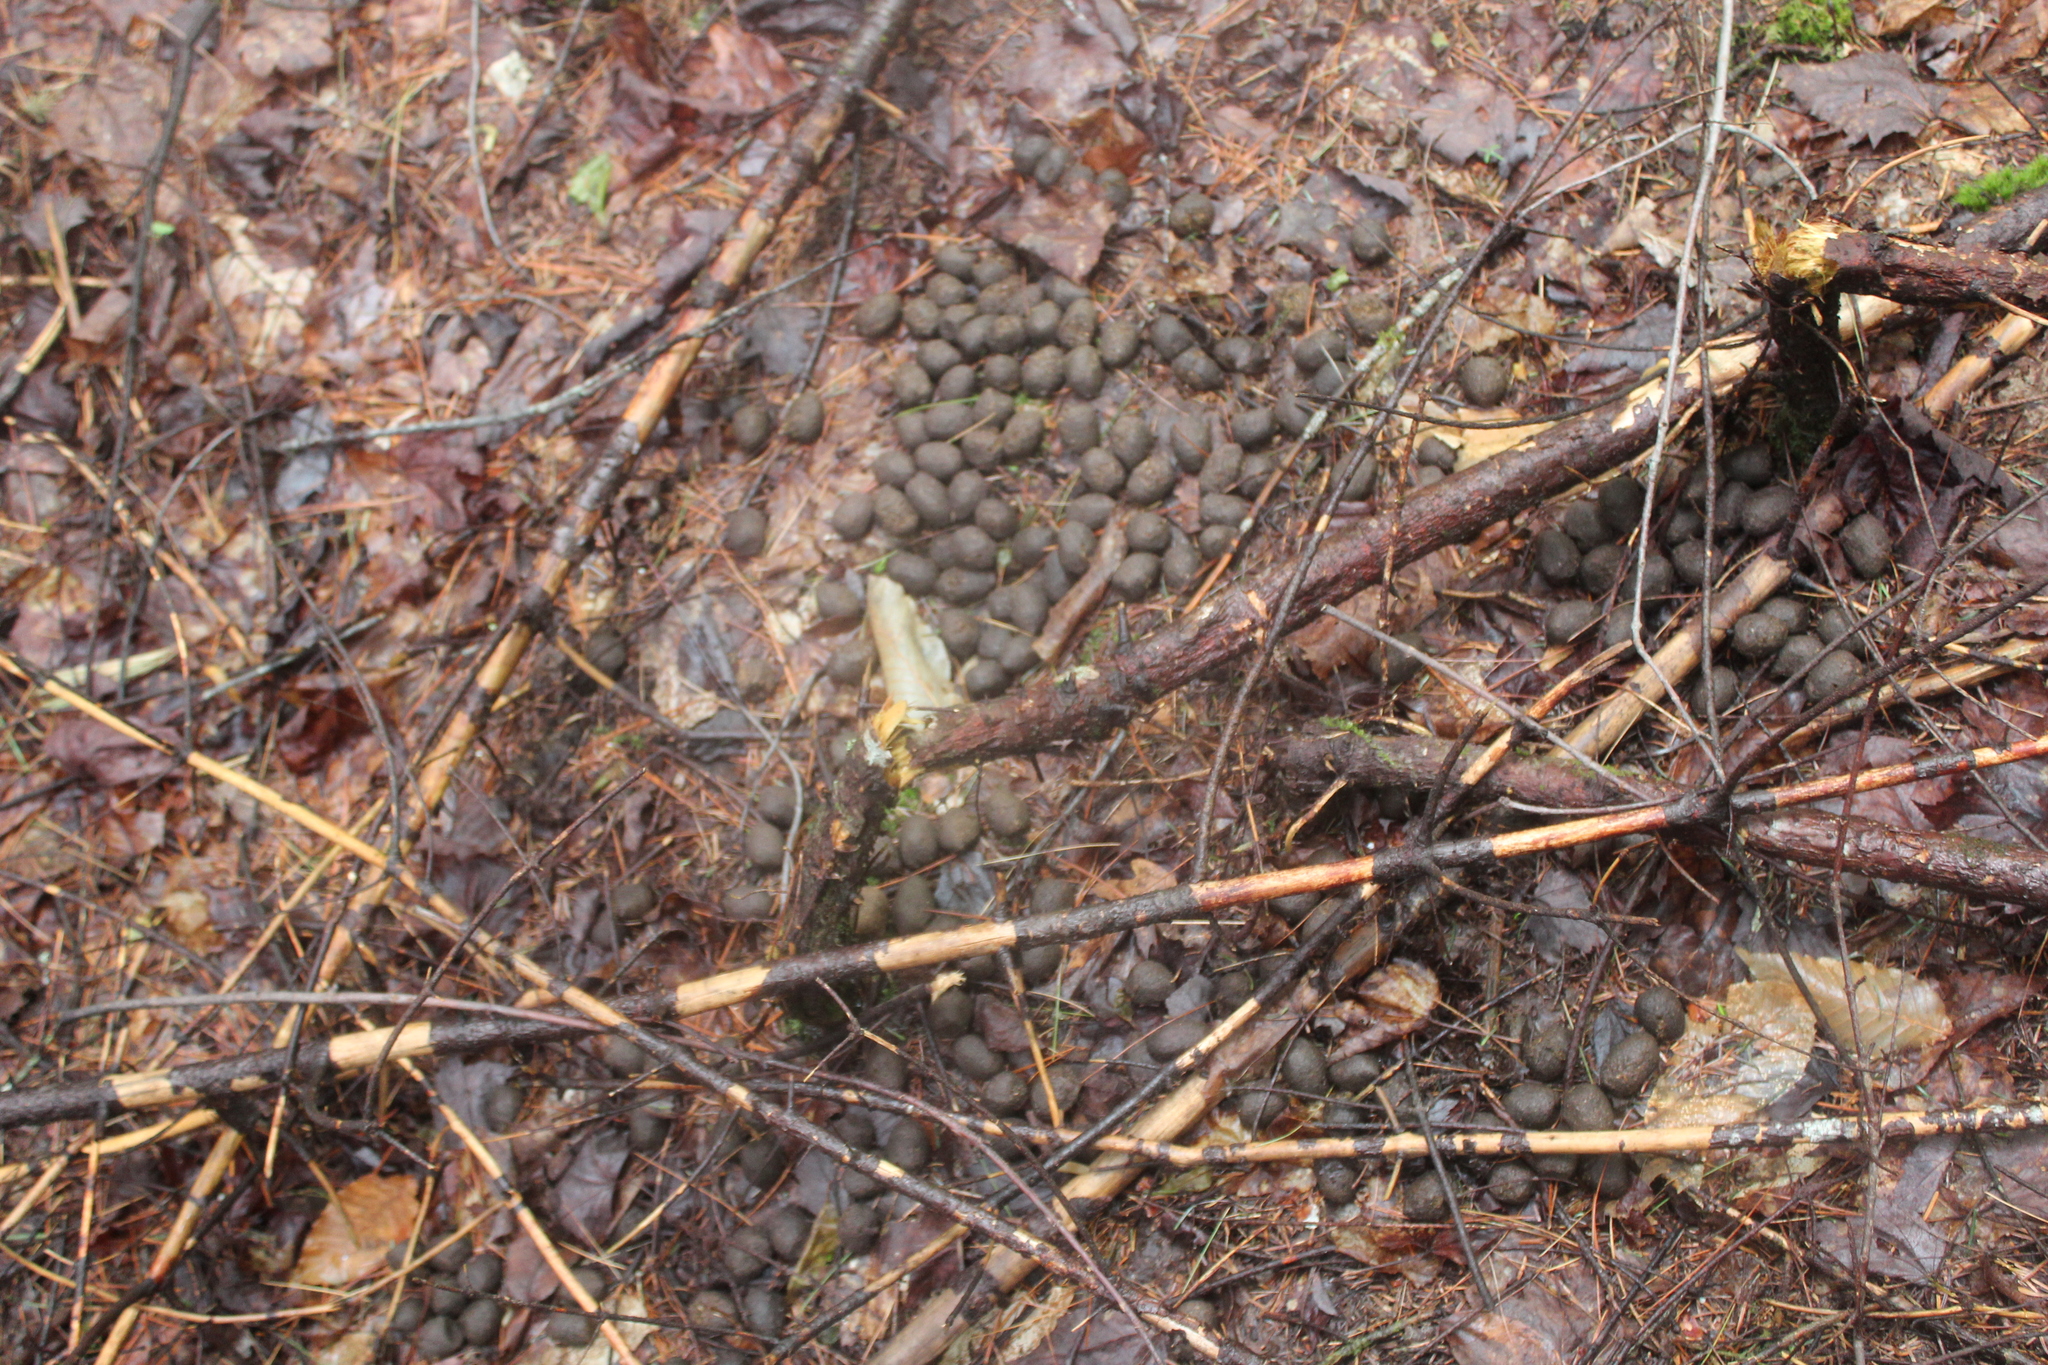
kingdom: Animalia
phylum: Chordata
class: Mammalia
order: Artiodactyla
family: Cervidae
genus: Alces
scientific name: Alces alces
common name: Moose
